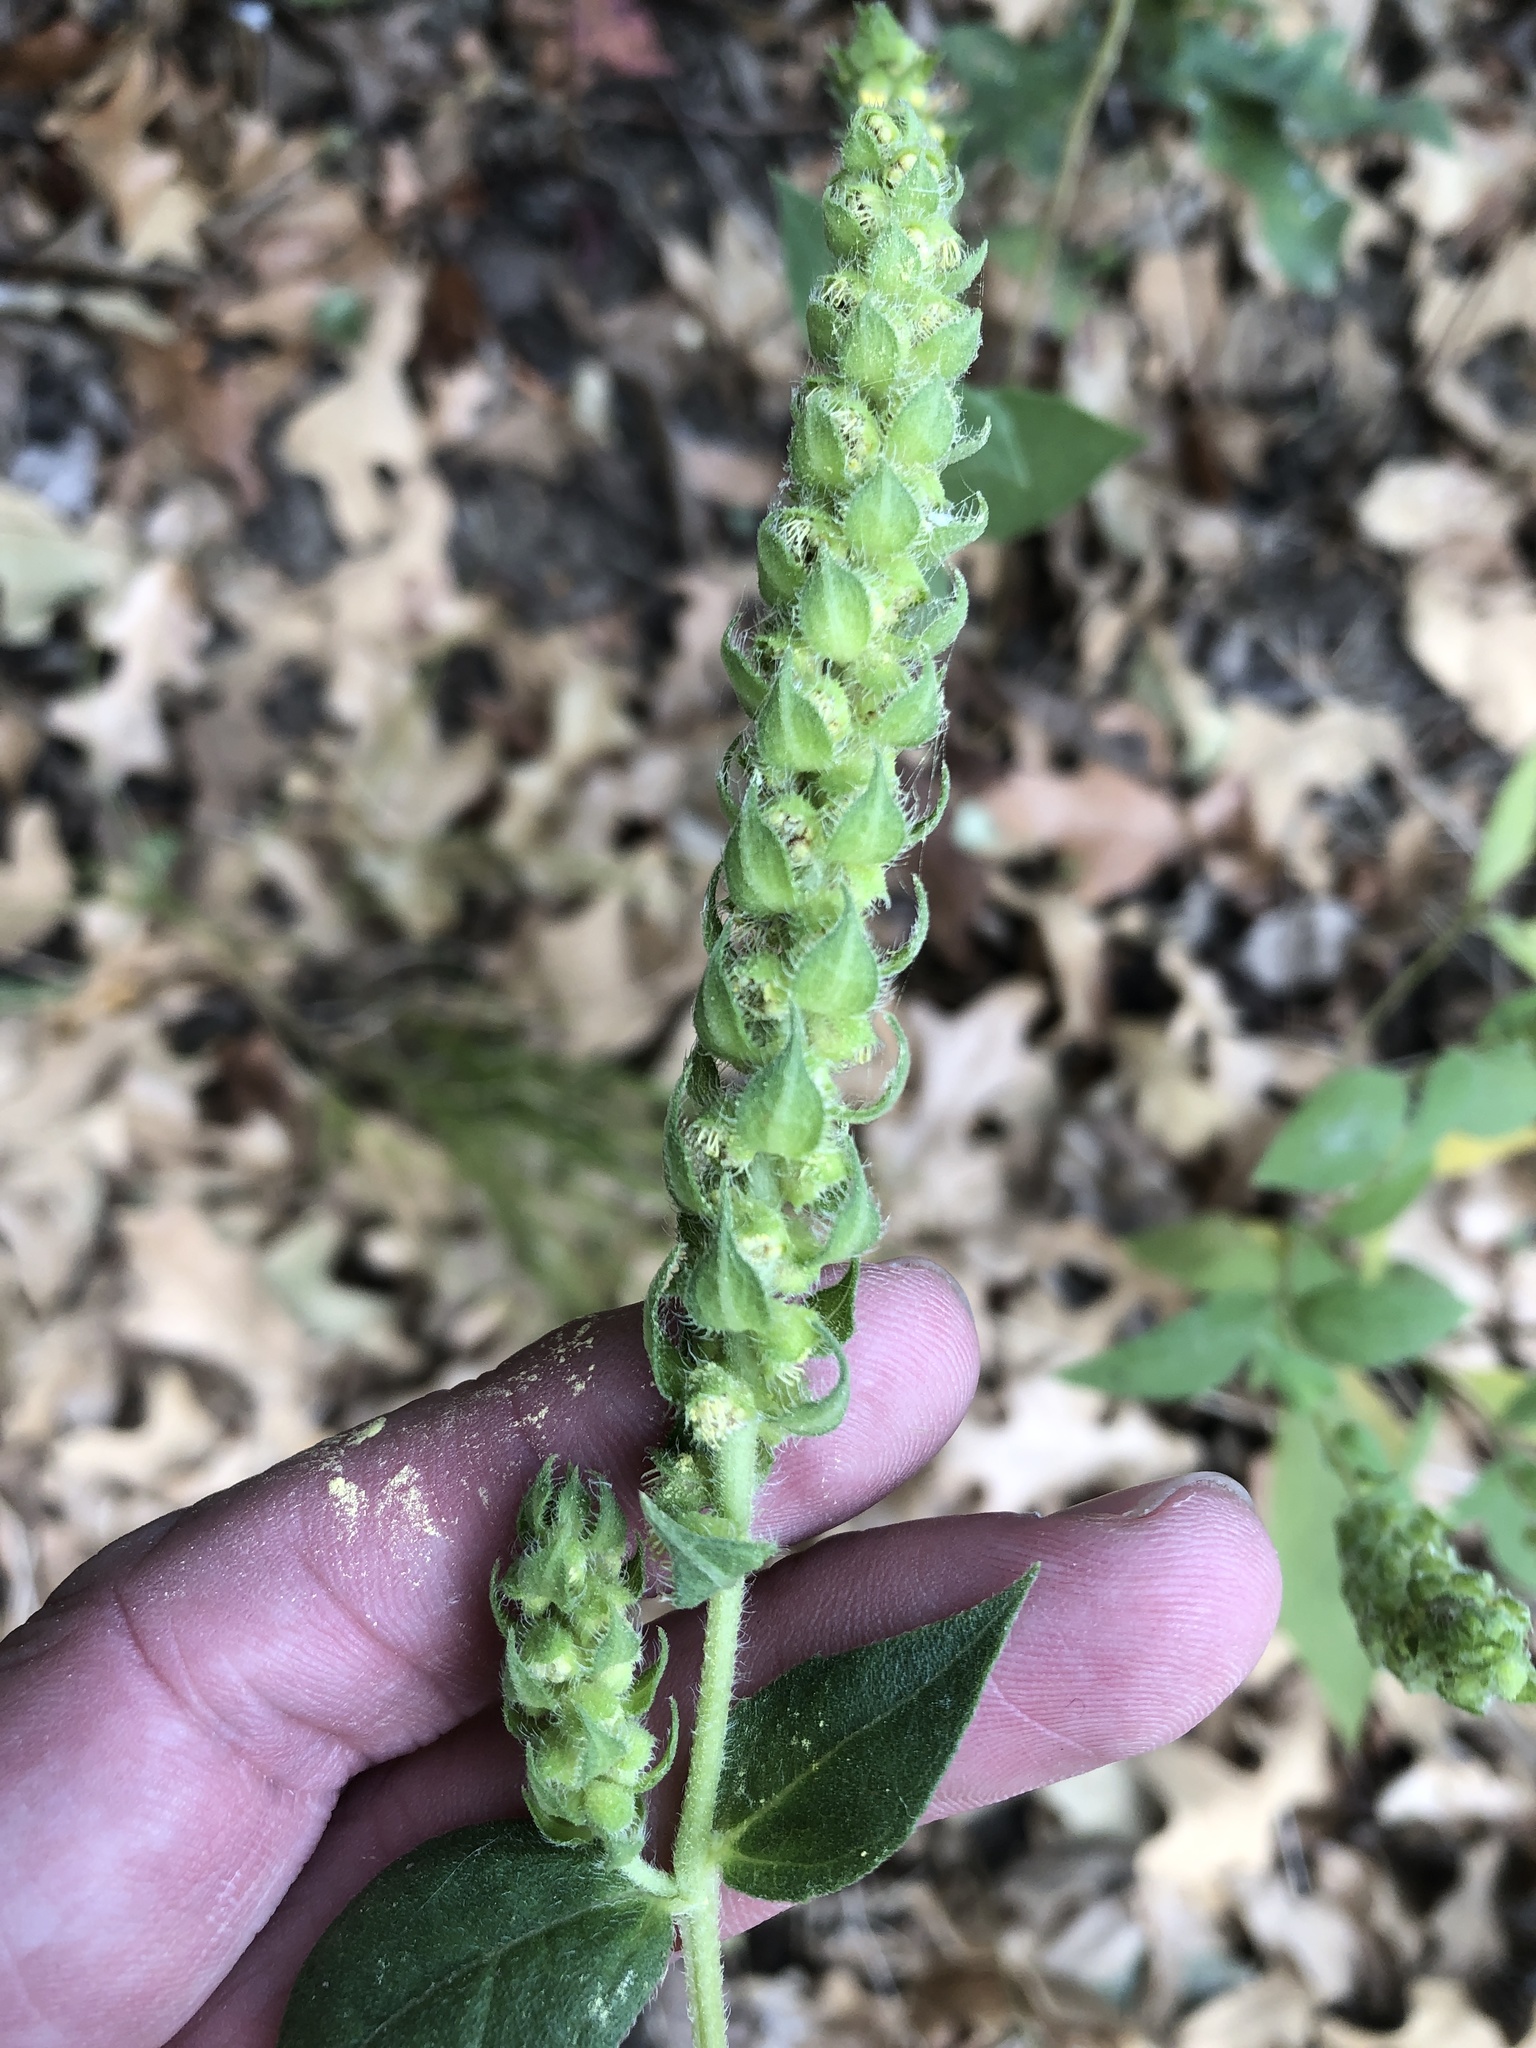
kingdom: Plantae
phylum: Tracheophyta
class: Magnoliopsida
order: Asterales
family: Asteraceae
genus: Iva
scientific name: Iva annua
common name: Marsh-elder
